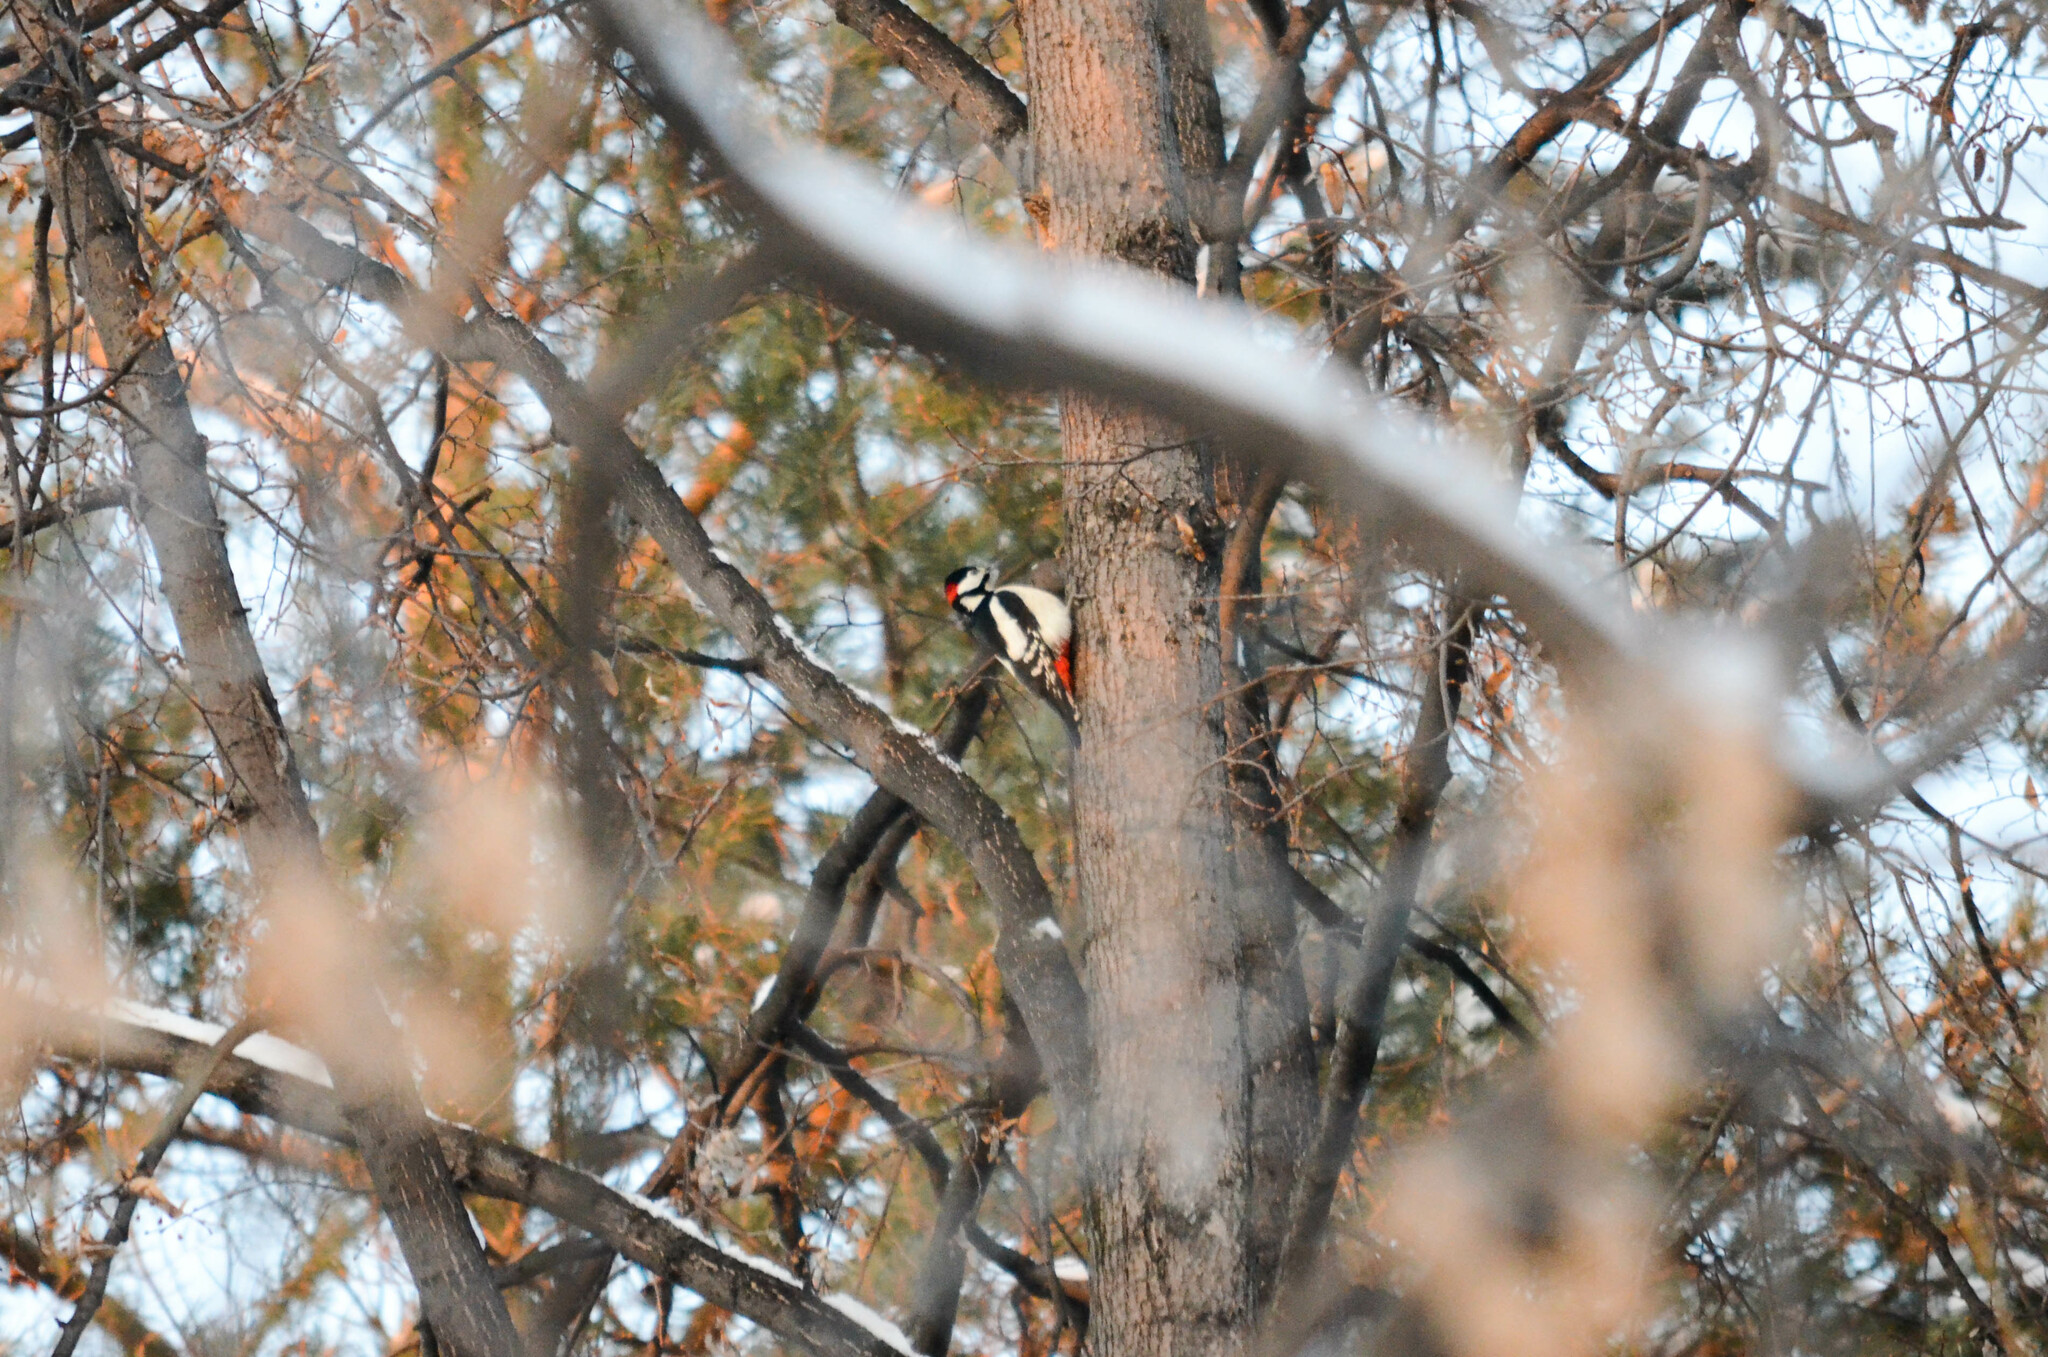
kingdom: Animalia
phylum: Chordata
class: Aves
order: Piciformes
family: Picidae
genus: Dendrocopos
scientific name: Dendrocopos major
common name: Great spotted woodpecker
